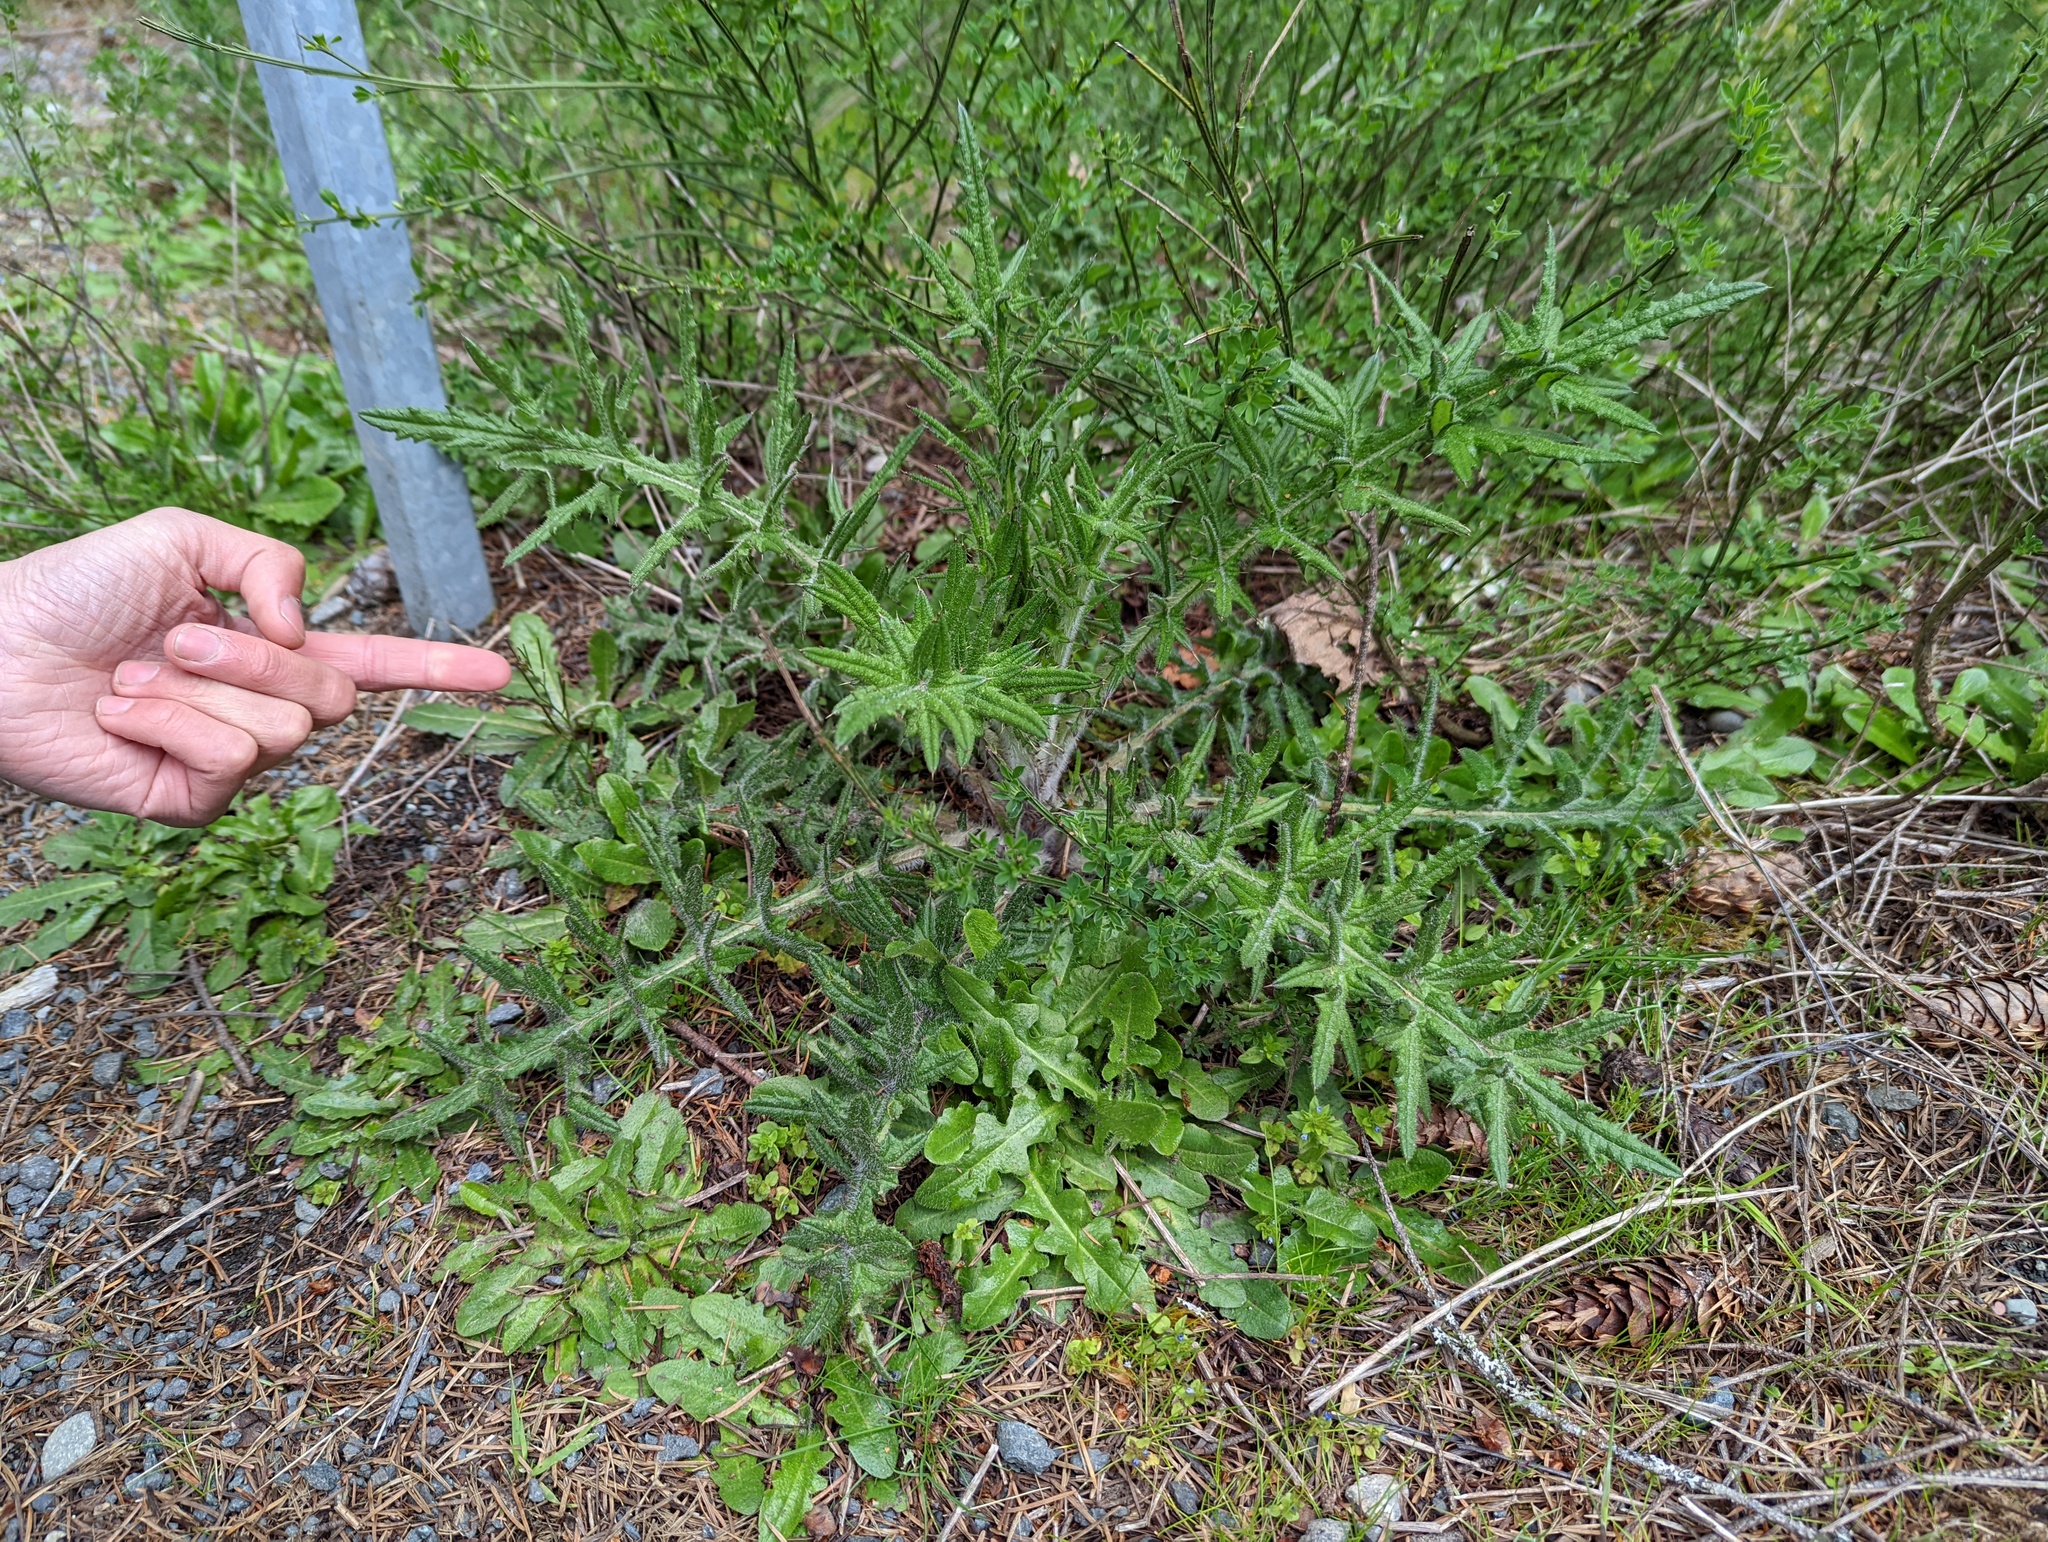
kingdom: Plantae
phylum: Tracheophyta
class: Magnoliopsida
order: Asterales
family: Asteraceae
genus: Cirsium
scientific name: Cirsium vulgare
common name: Bull thistle
